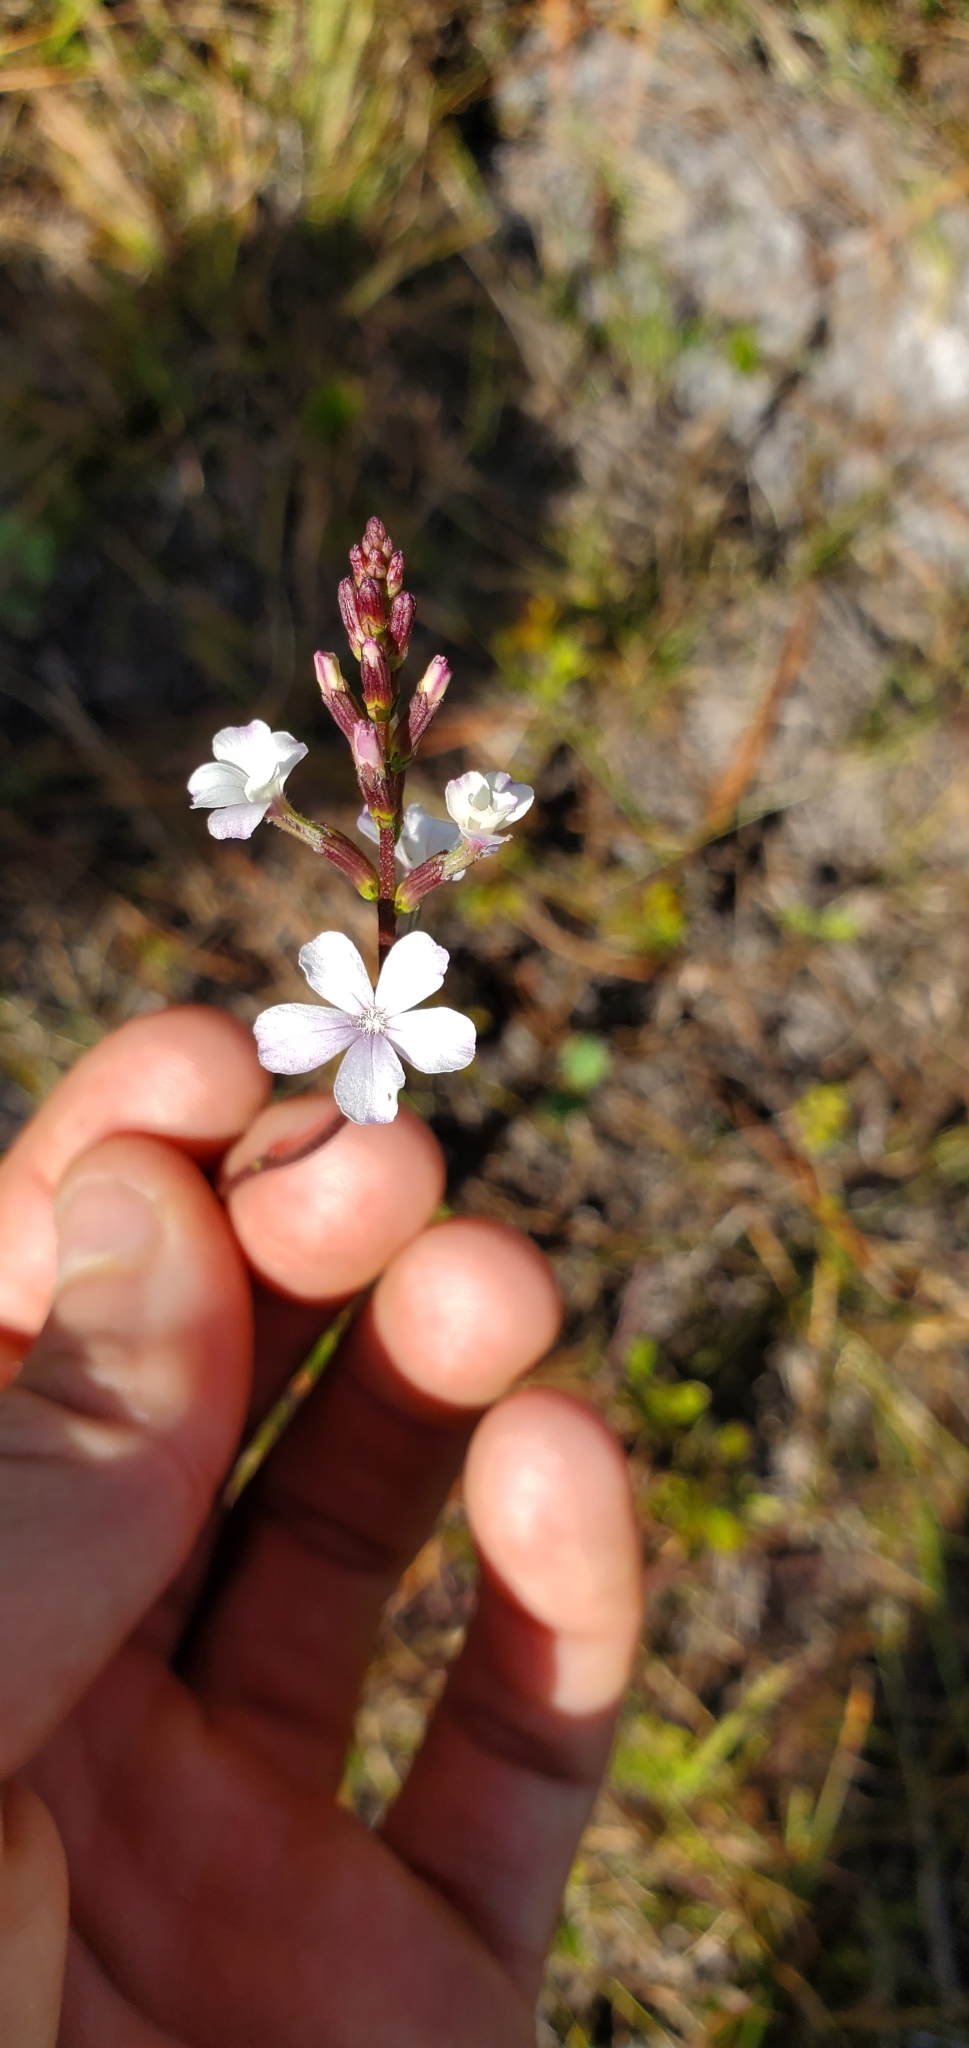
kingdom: Plantae
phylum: Tracheophyta
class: Magnoliopsida
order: Lamiales
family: Orobanchaceae
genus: Buchnera
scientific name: Buchnera floridana
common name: Florida bluehearts
